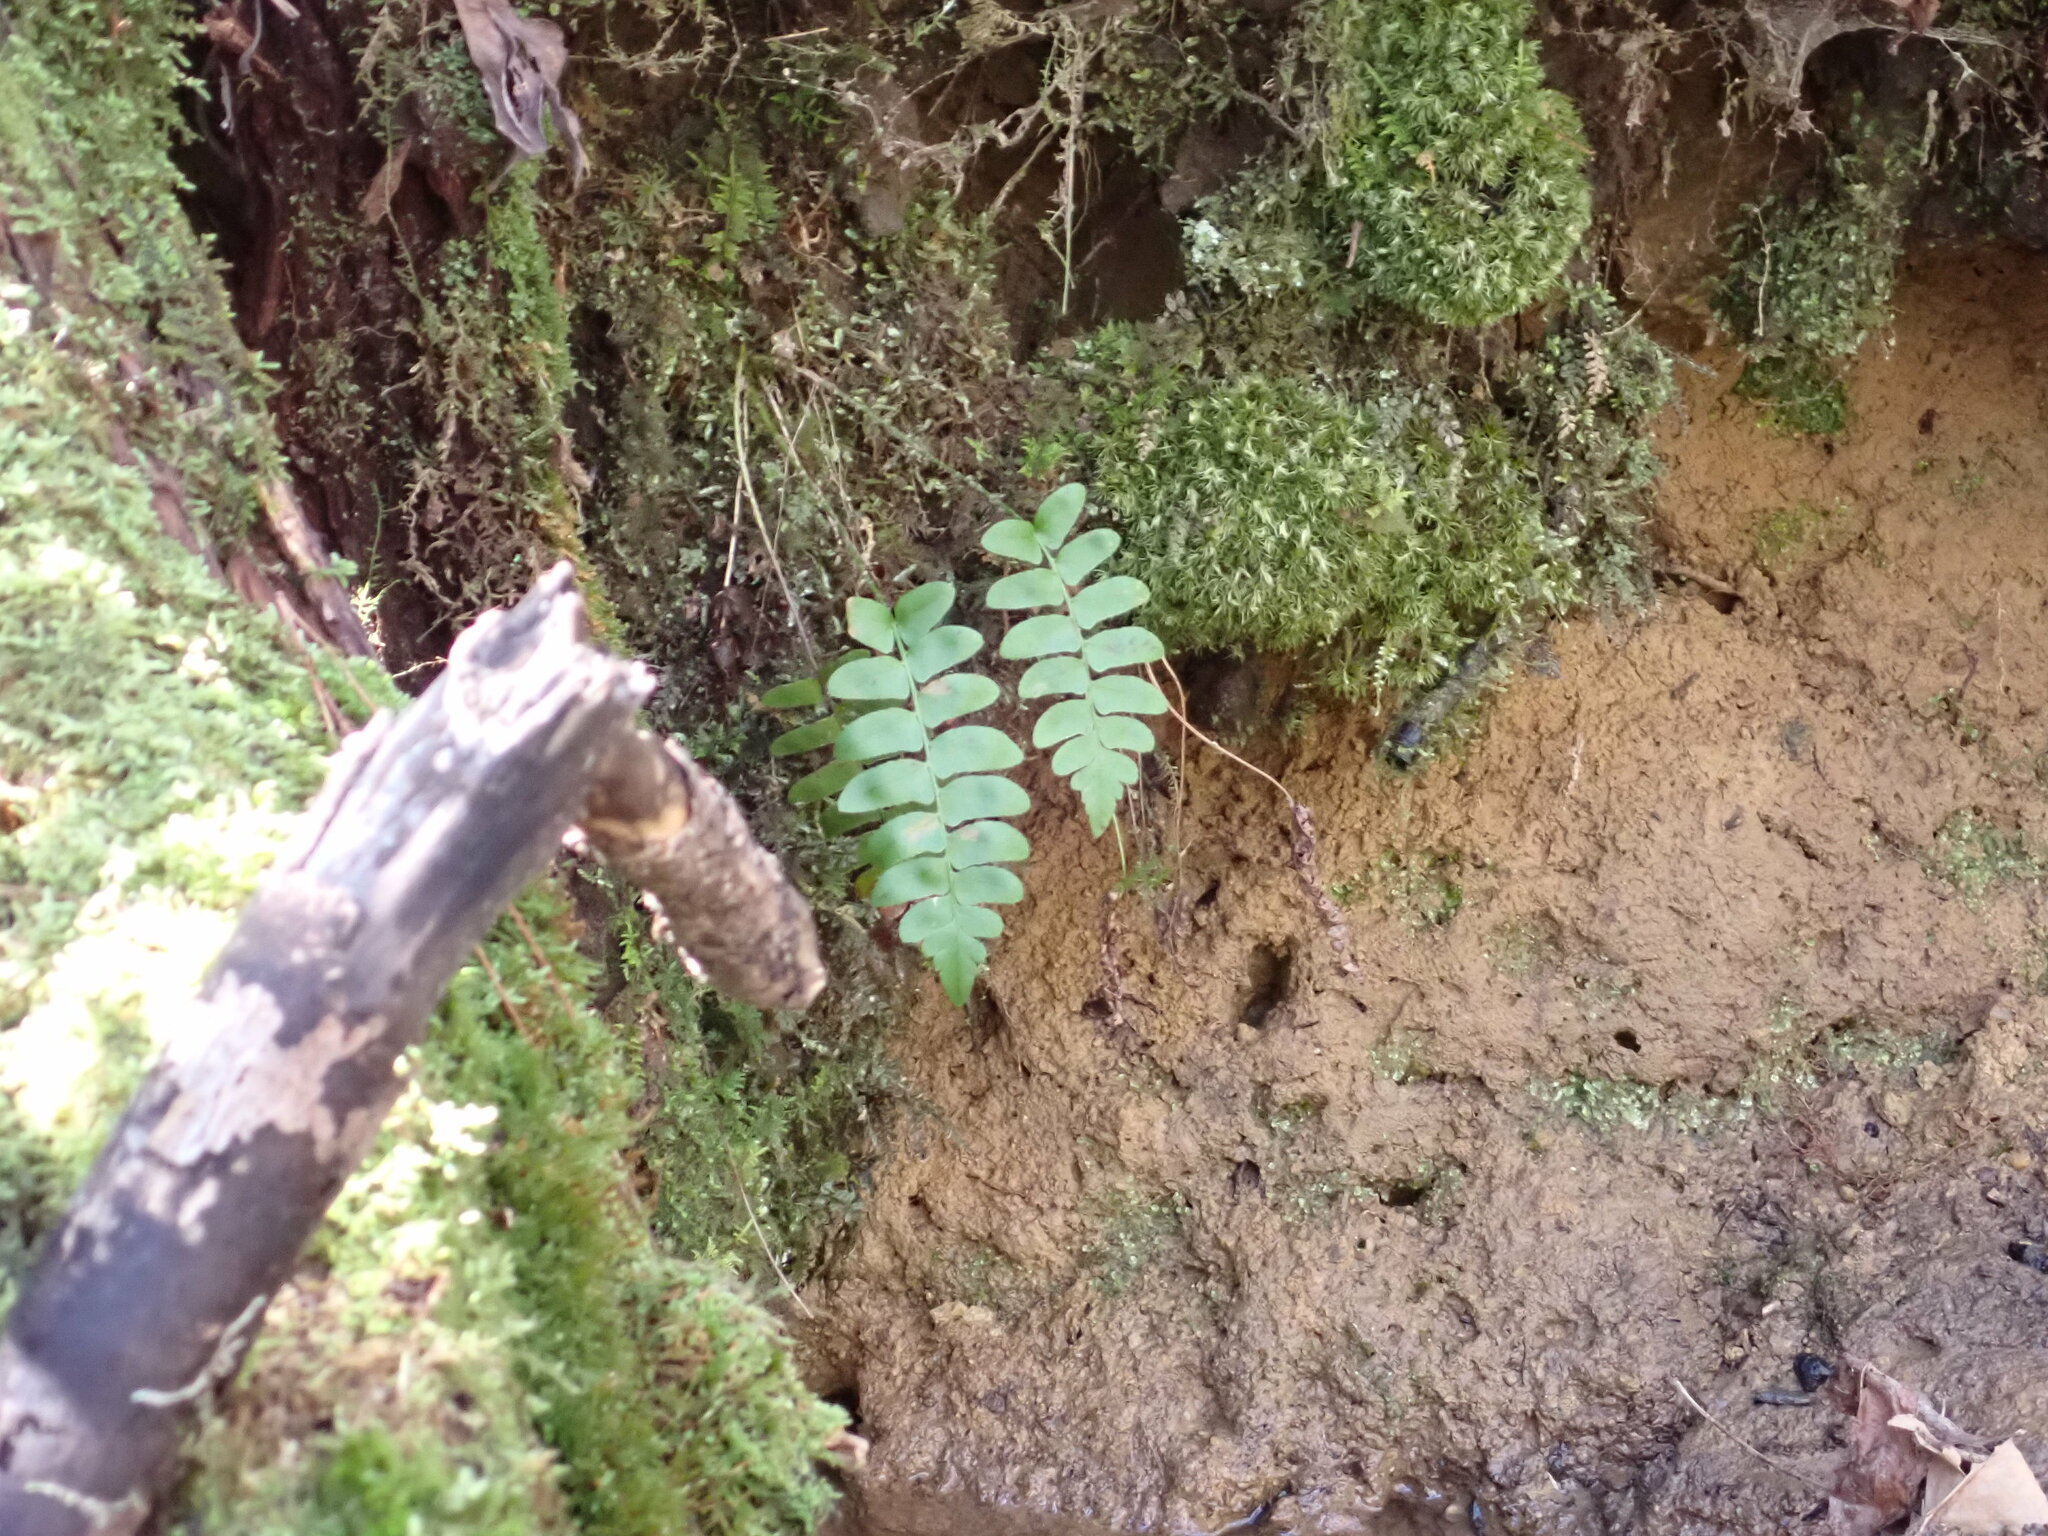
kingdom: Plantae
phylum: Tracheophyta
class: Polypodiopsida
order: Polypodiales
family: Dryopteridaceae
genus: Polystichum
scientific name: Polystichum acrostichoides
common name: Christmas fern
